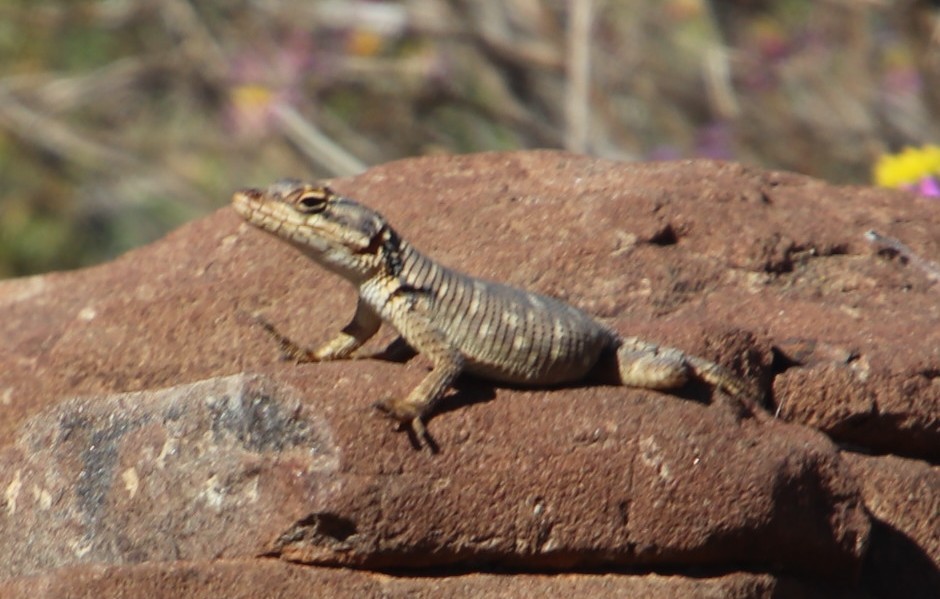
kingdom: Animalia
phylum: Chordata
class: Squamata
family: Cordylidae
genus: Karusasaurus
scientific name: Karusasaurus polyzonus
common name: Karoo girdled lizard
